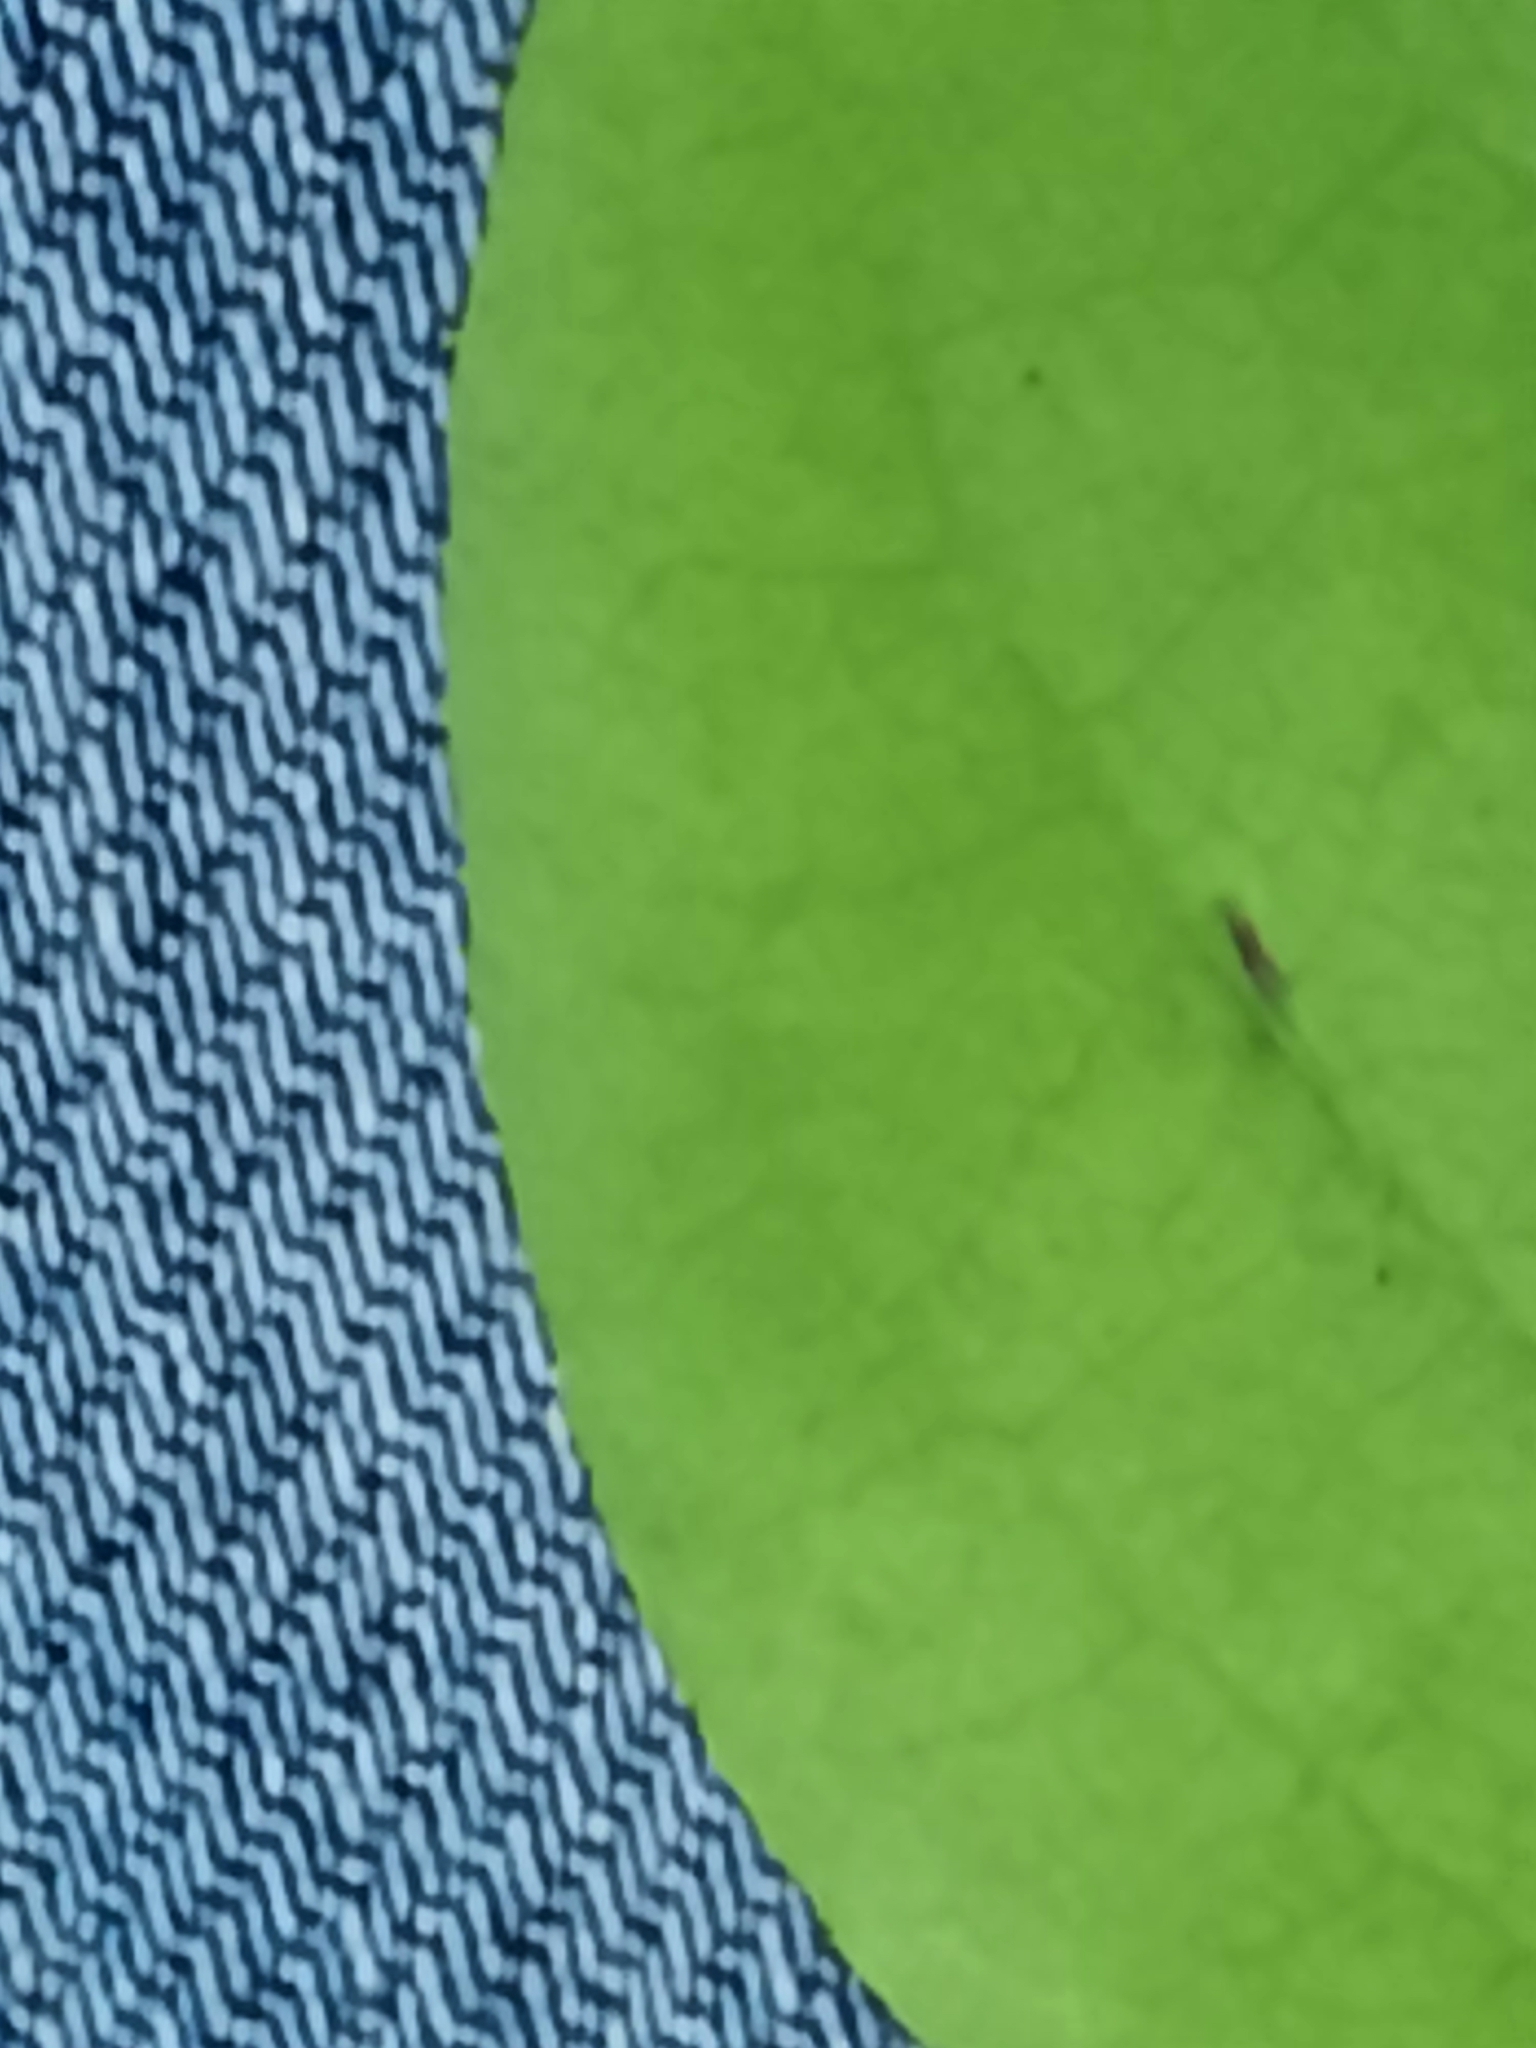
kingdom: Plantae
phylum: Tracheophyta
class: Magnoliopsida
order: Dipsacales
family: Caprifoliaceae
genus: Lonicera
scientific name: Lonicera canadensis
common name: American fly-honeysuckle
